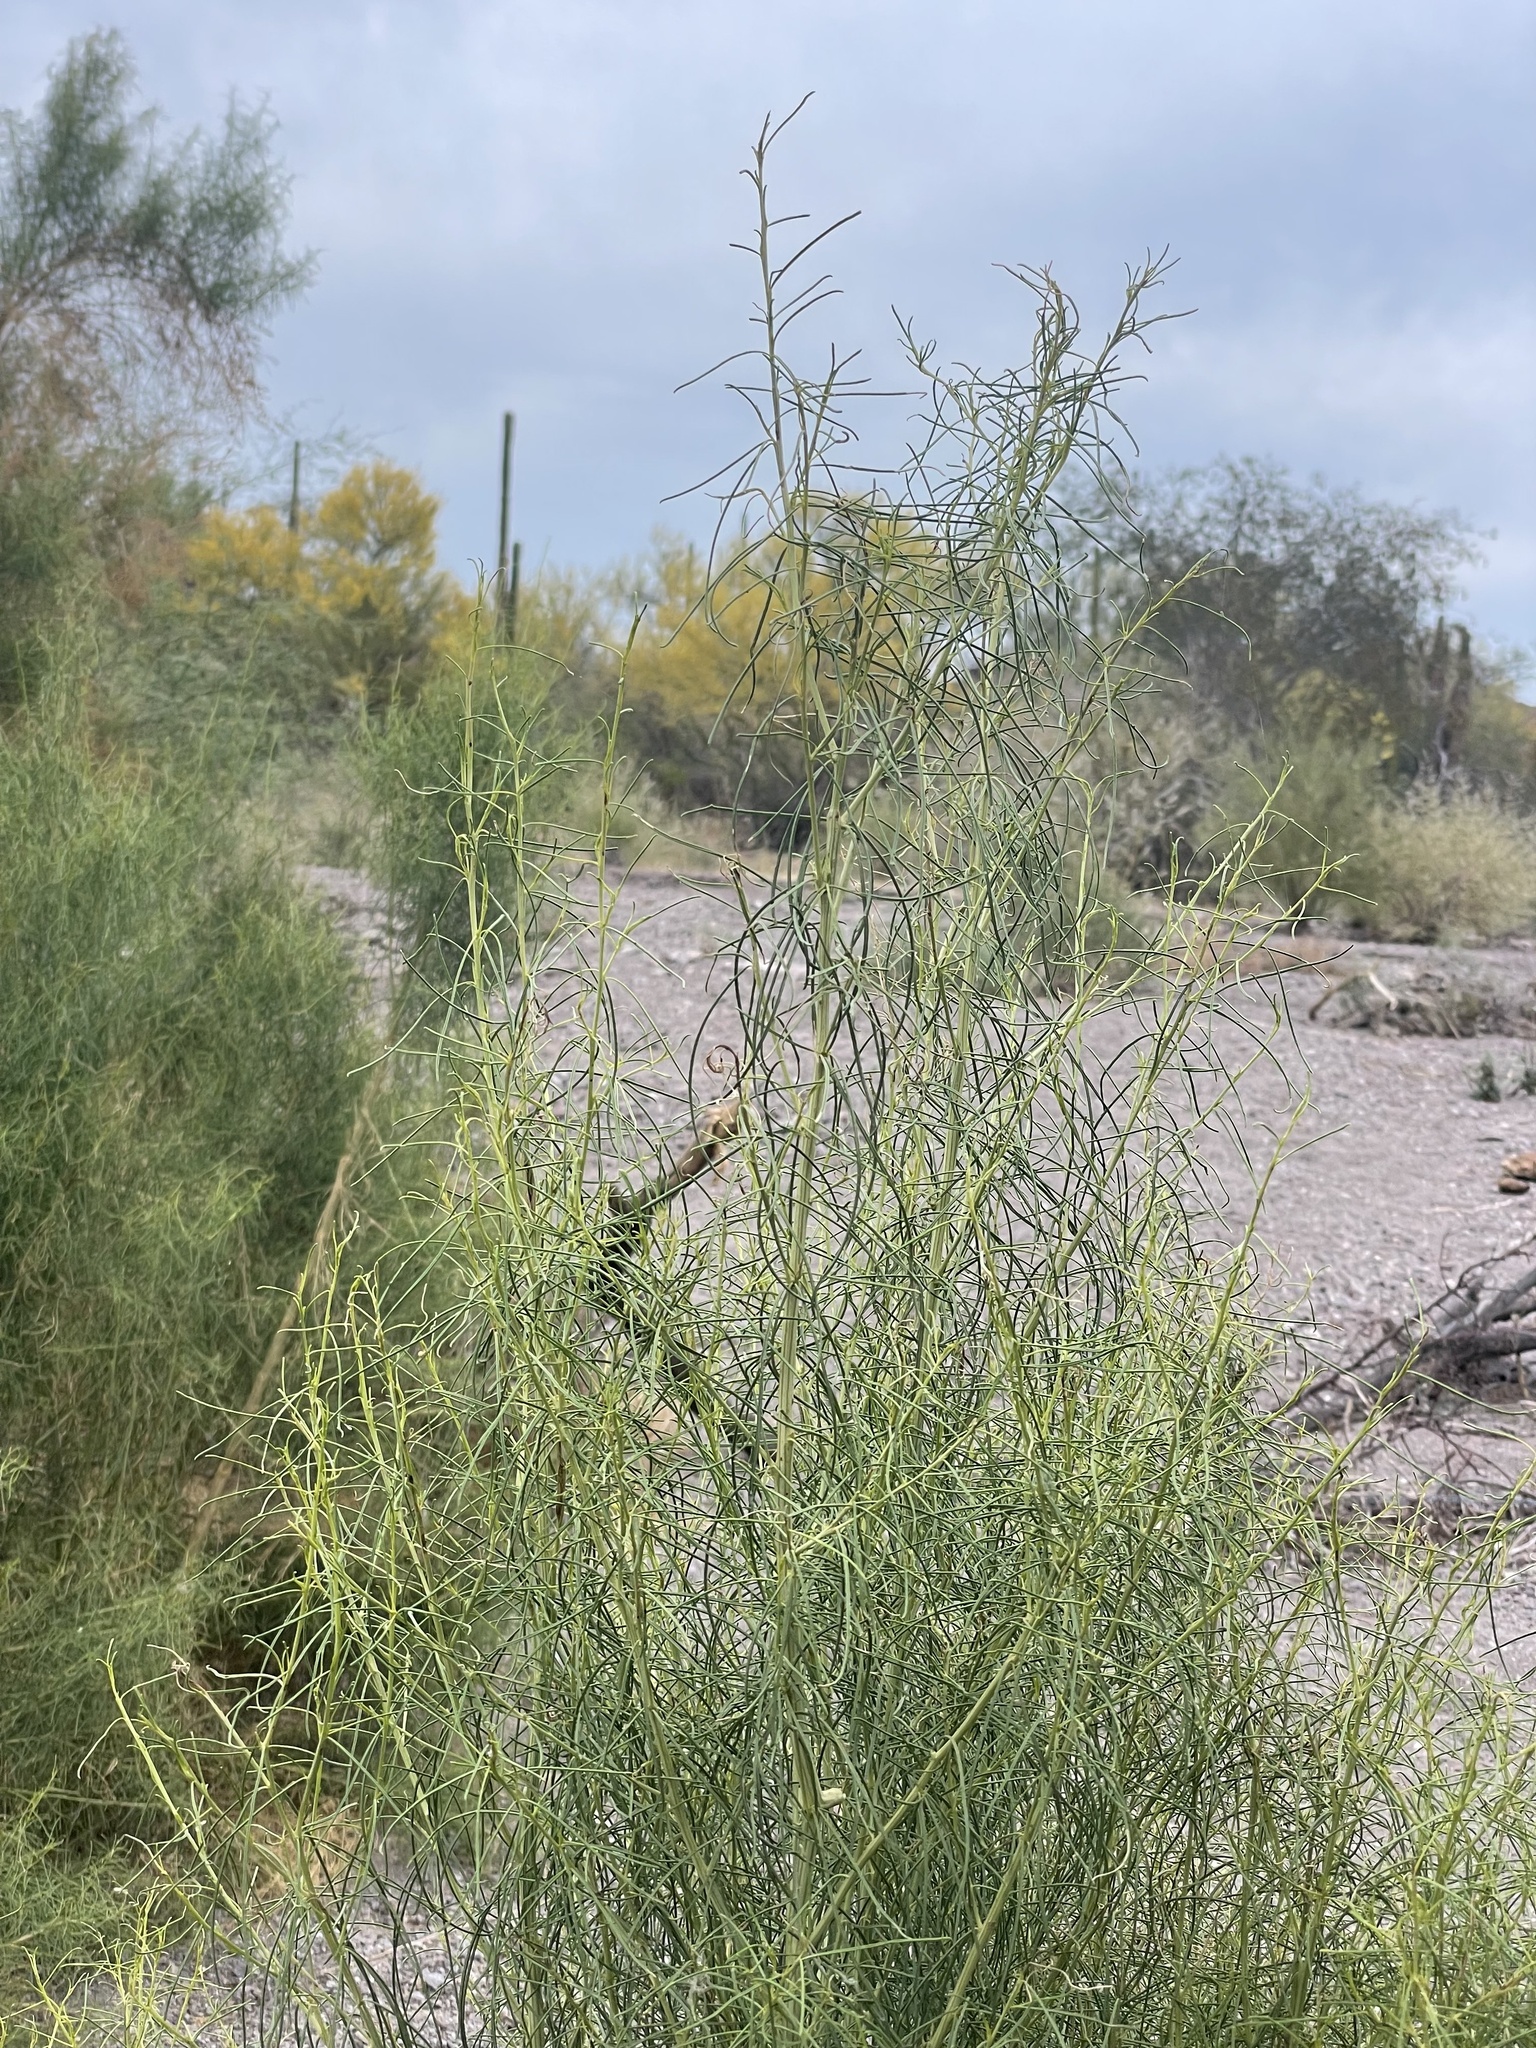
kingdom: Plantae
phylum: Tracheophyta
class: Magnoliopsida
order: Asterales
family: Asteraceae
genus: Ambrosia
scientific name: Ambrosia monogyra
